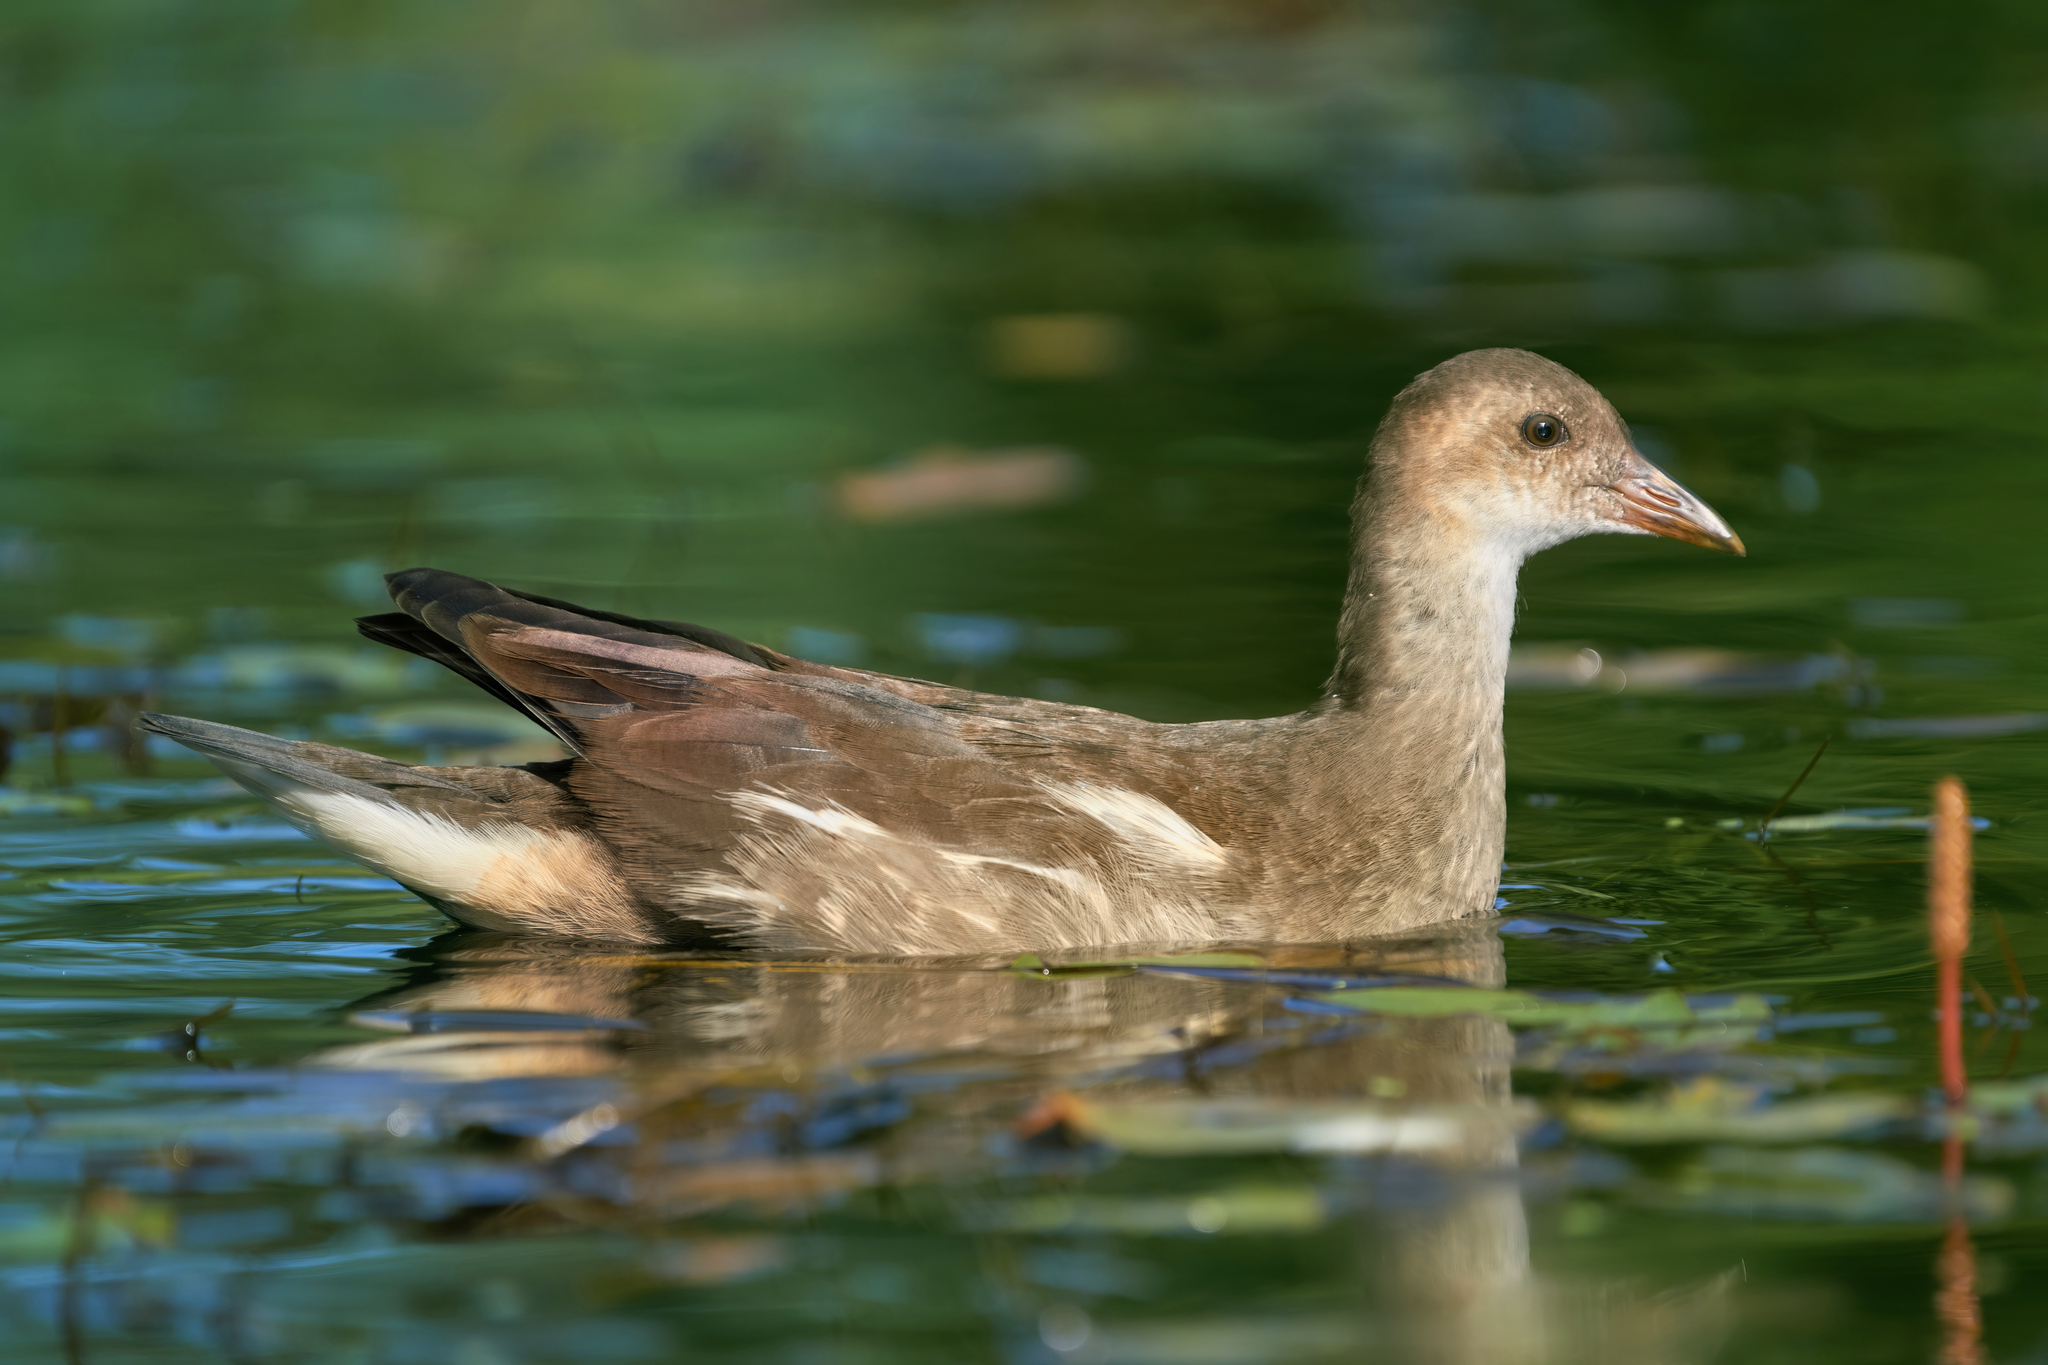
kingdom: Animalia
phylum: Chordata
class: Aves
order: Gruiformes
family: Rallidae
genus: Gallinula
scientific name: Gallinula chloropus
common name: Common moorhen
